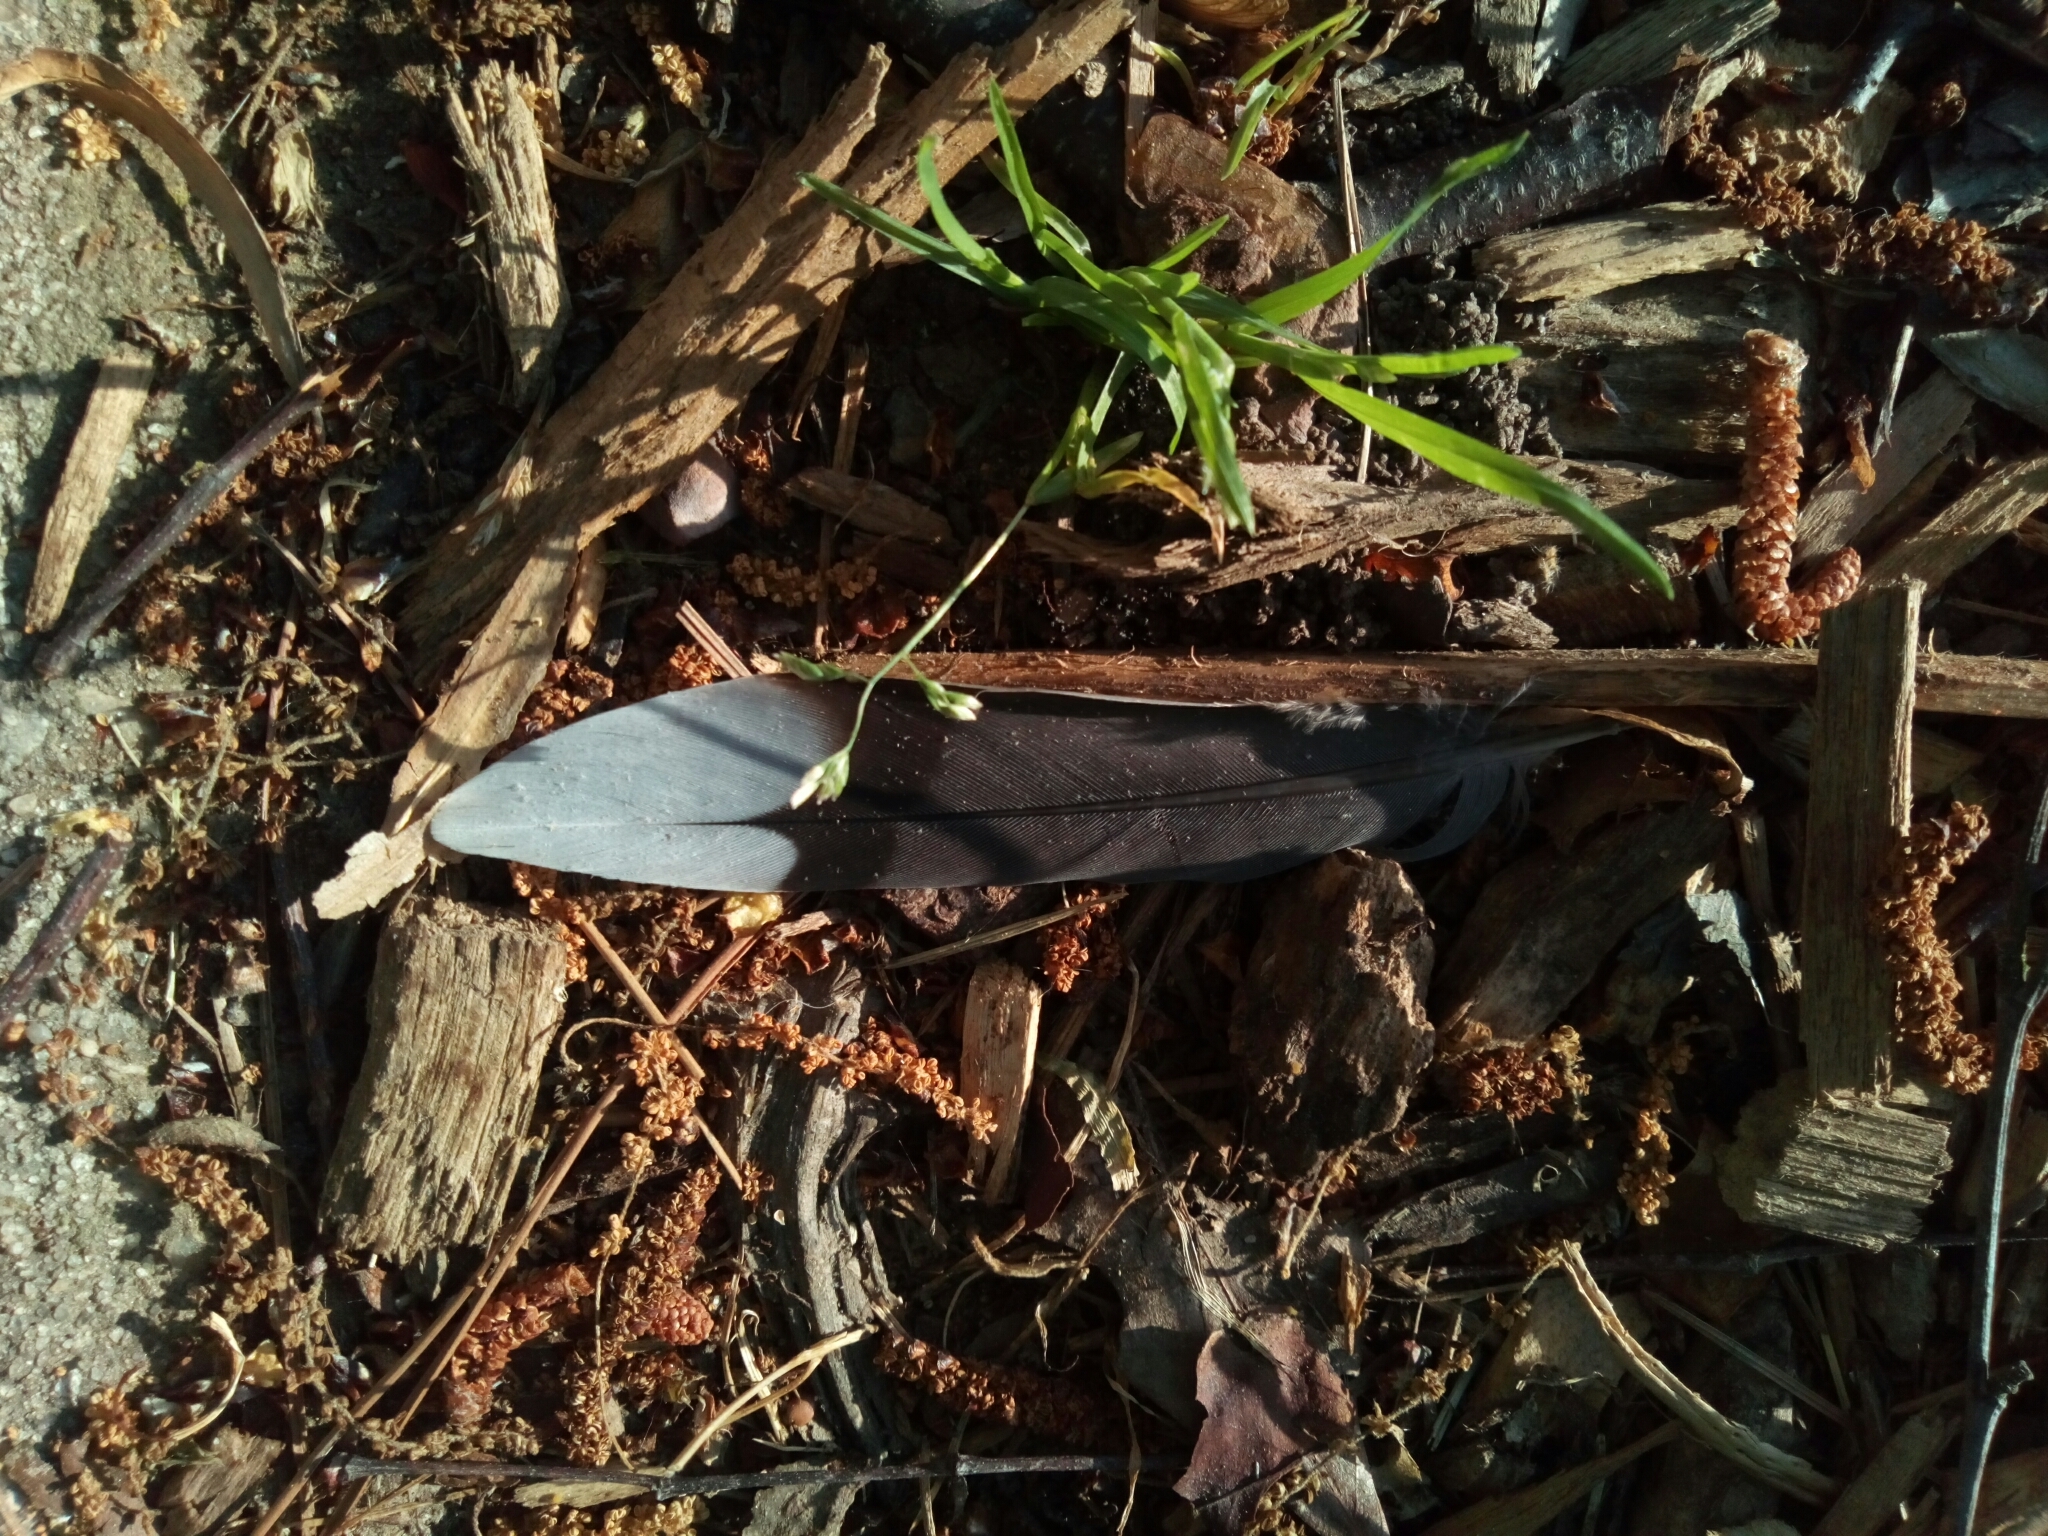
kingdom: Animalia
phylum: Chordata
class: Aves
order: Columbiformes
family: Columbidae
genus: Zenaida
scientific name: Zenaida macroura
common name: Mourning dove
